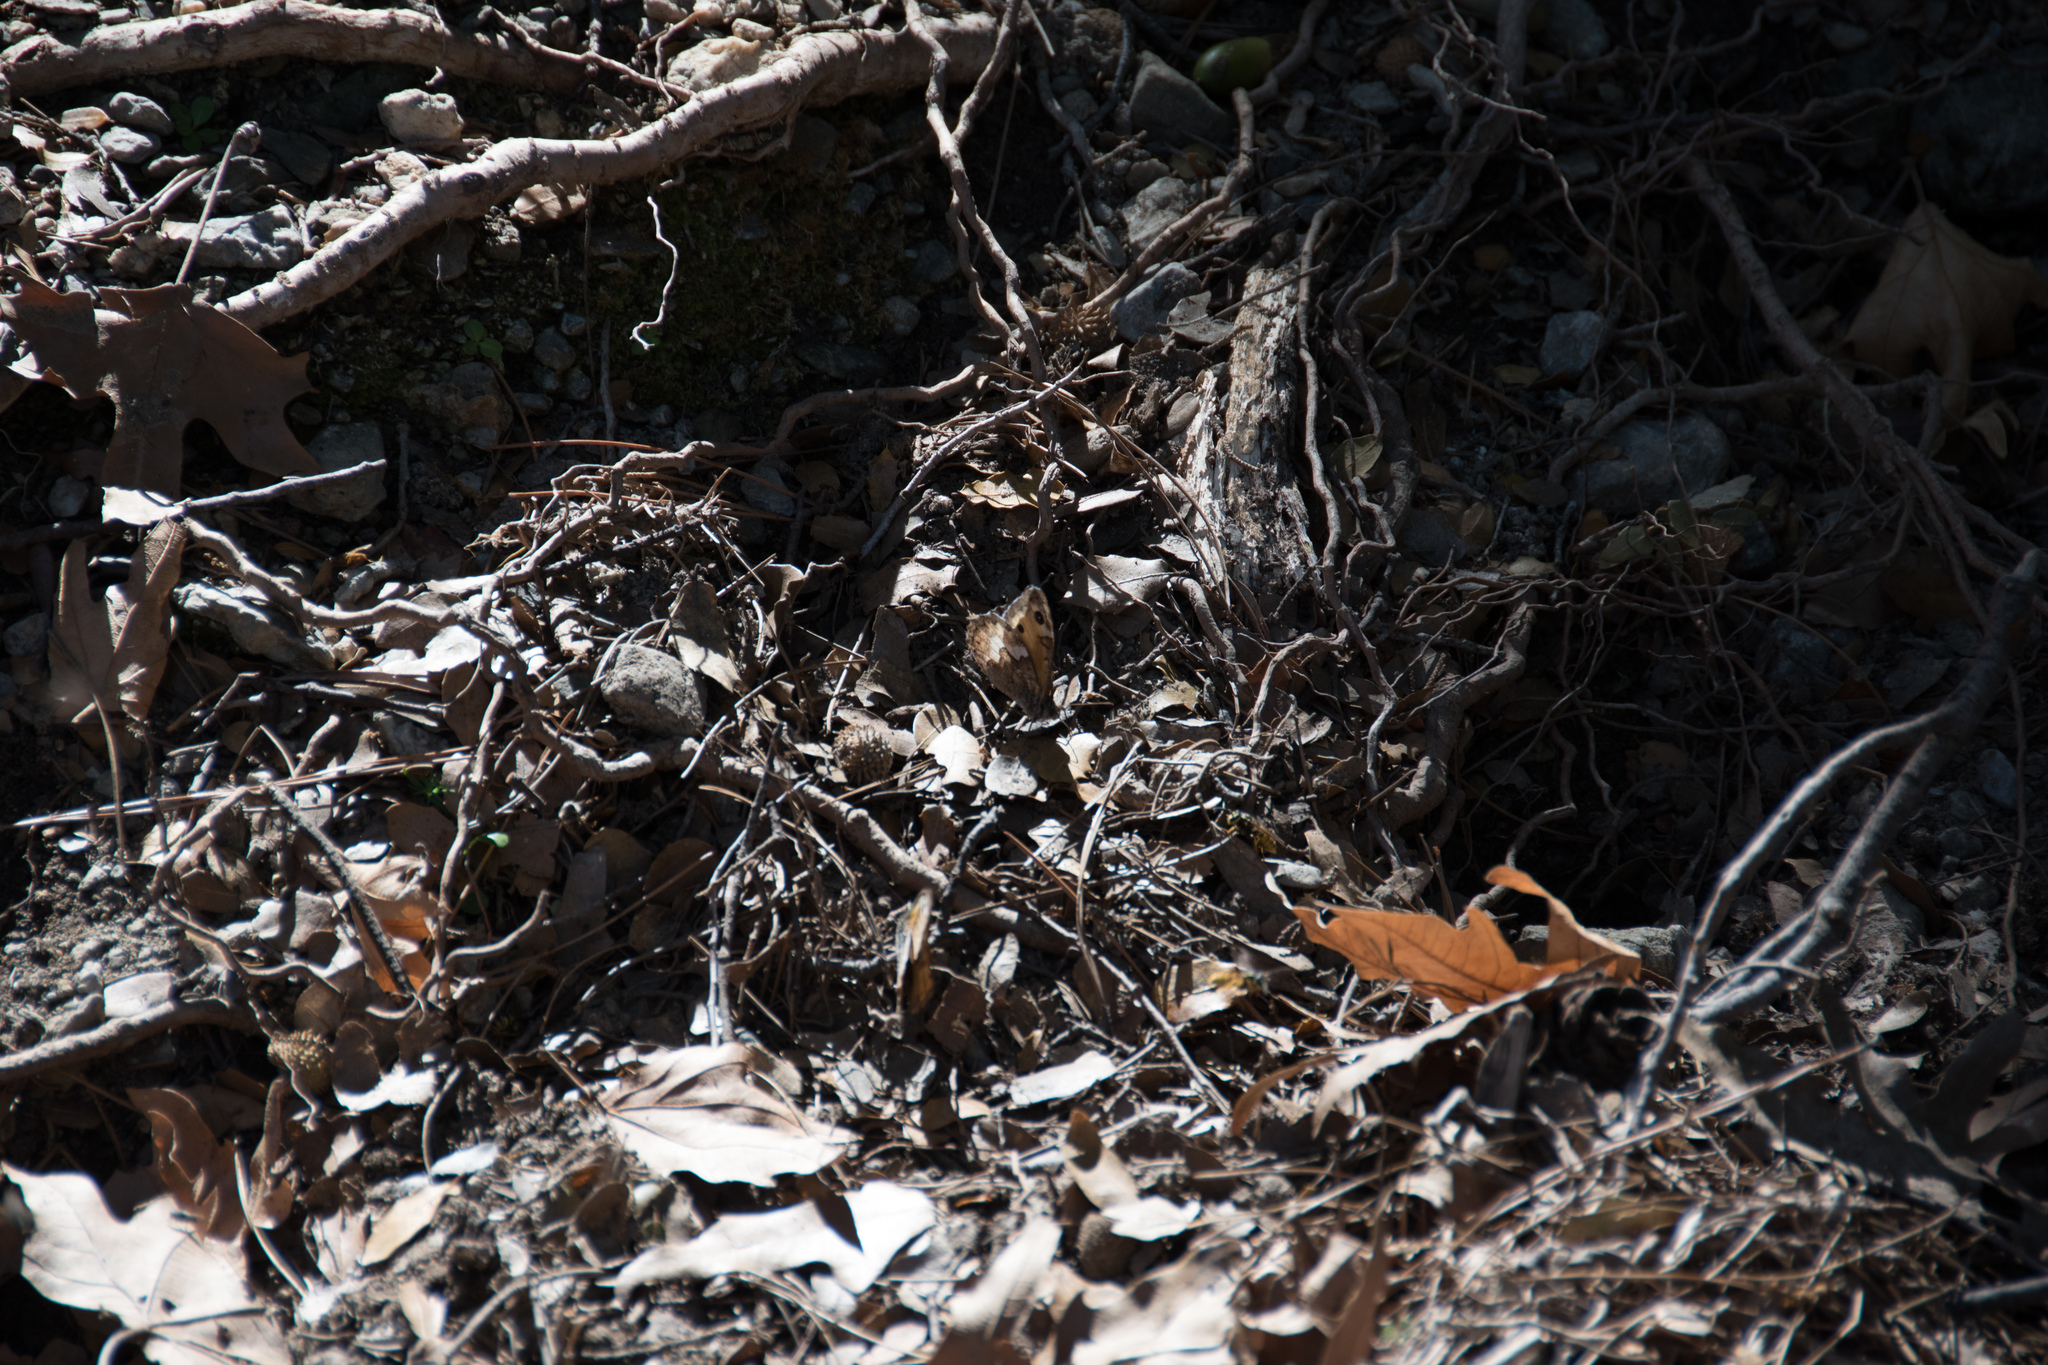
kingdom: Animalia
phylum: Arthropoda
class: Insecta
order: Lepidoptera
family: Nymphalidae
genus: Hipparchia
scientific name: Hipparchia cretica
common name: Cretan grayling
